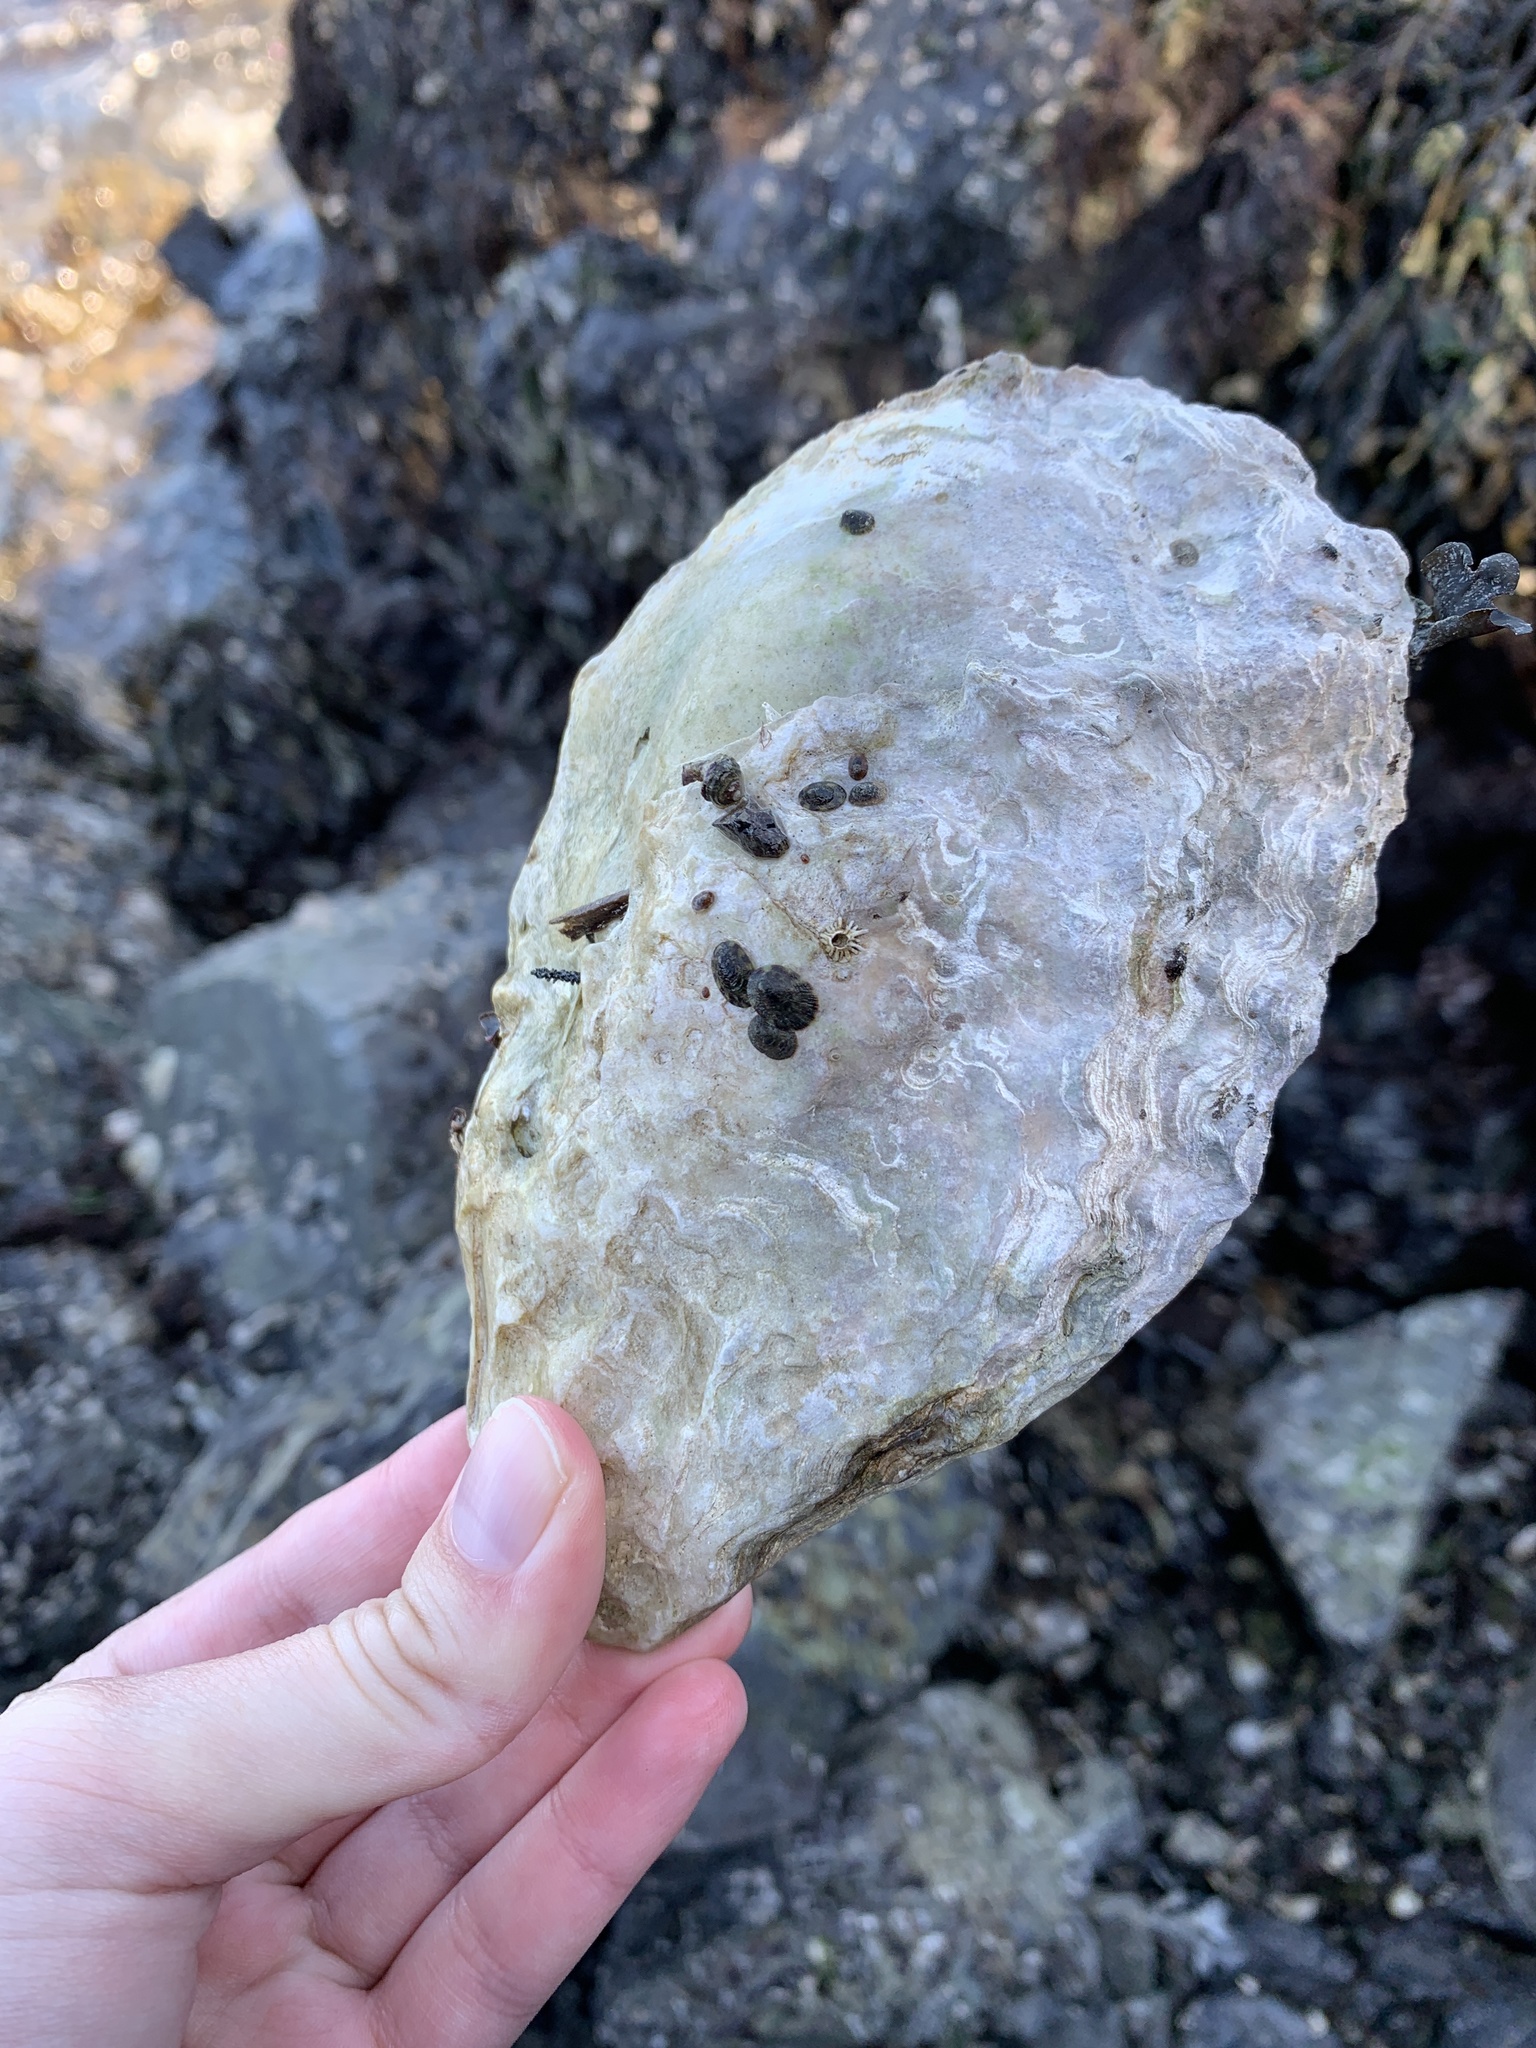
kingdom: Animalia
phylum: Mollusca
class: Bivalvia
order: Ostreida
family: Ostreidae
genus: Magallana
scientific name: Magallana gigas
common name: Pacific oyster
